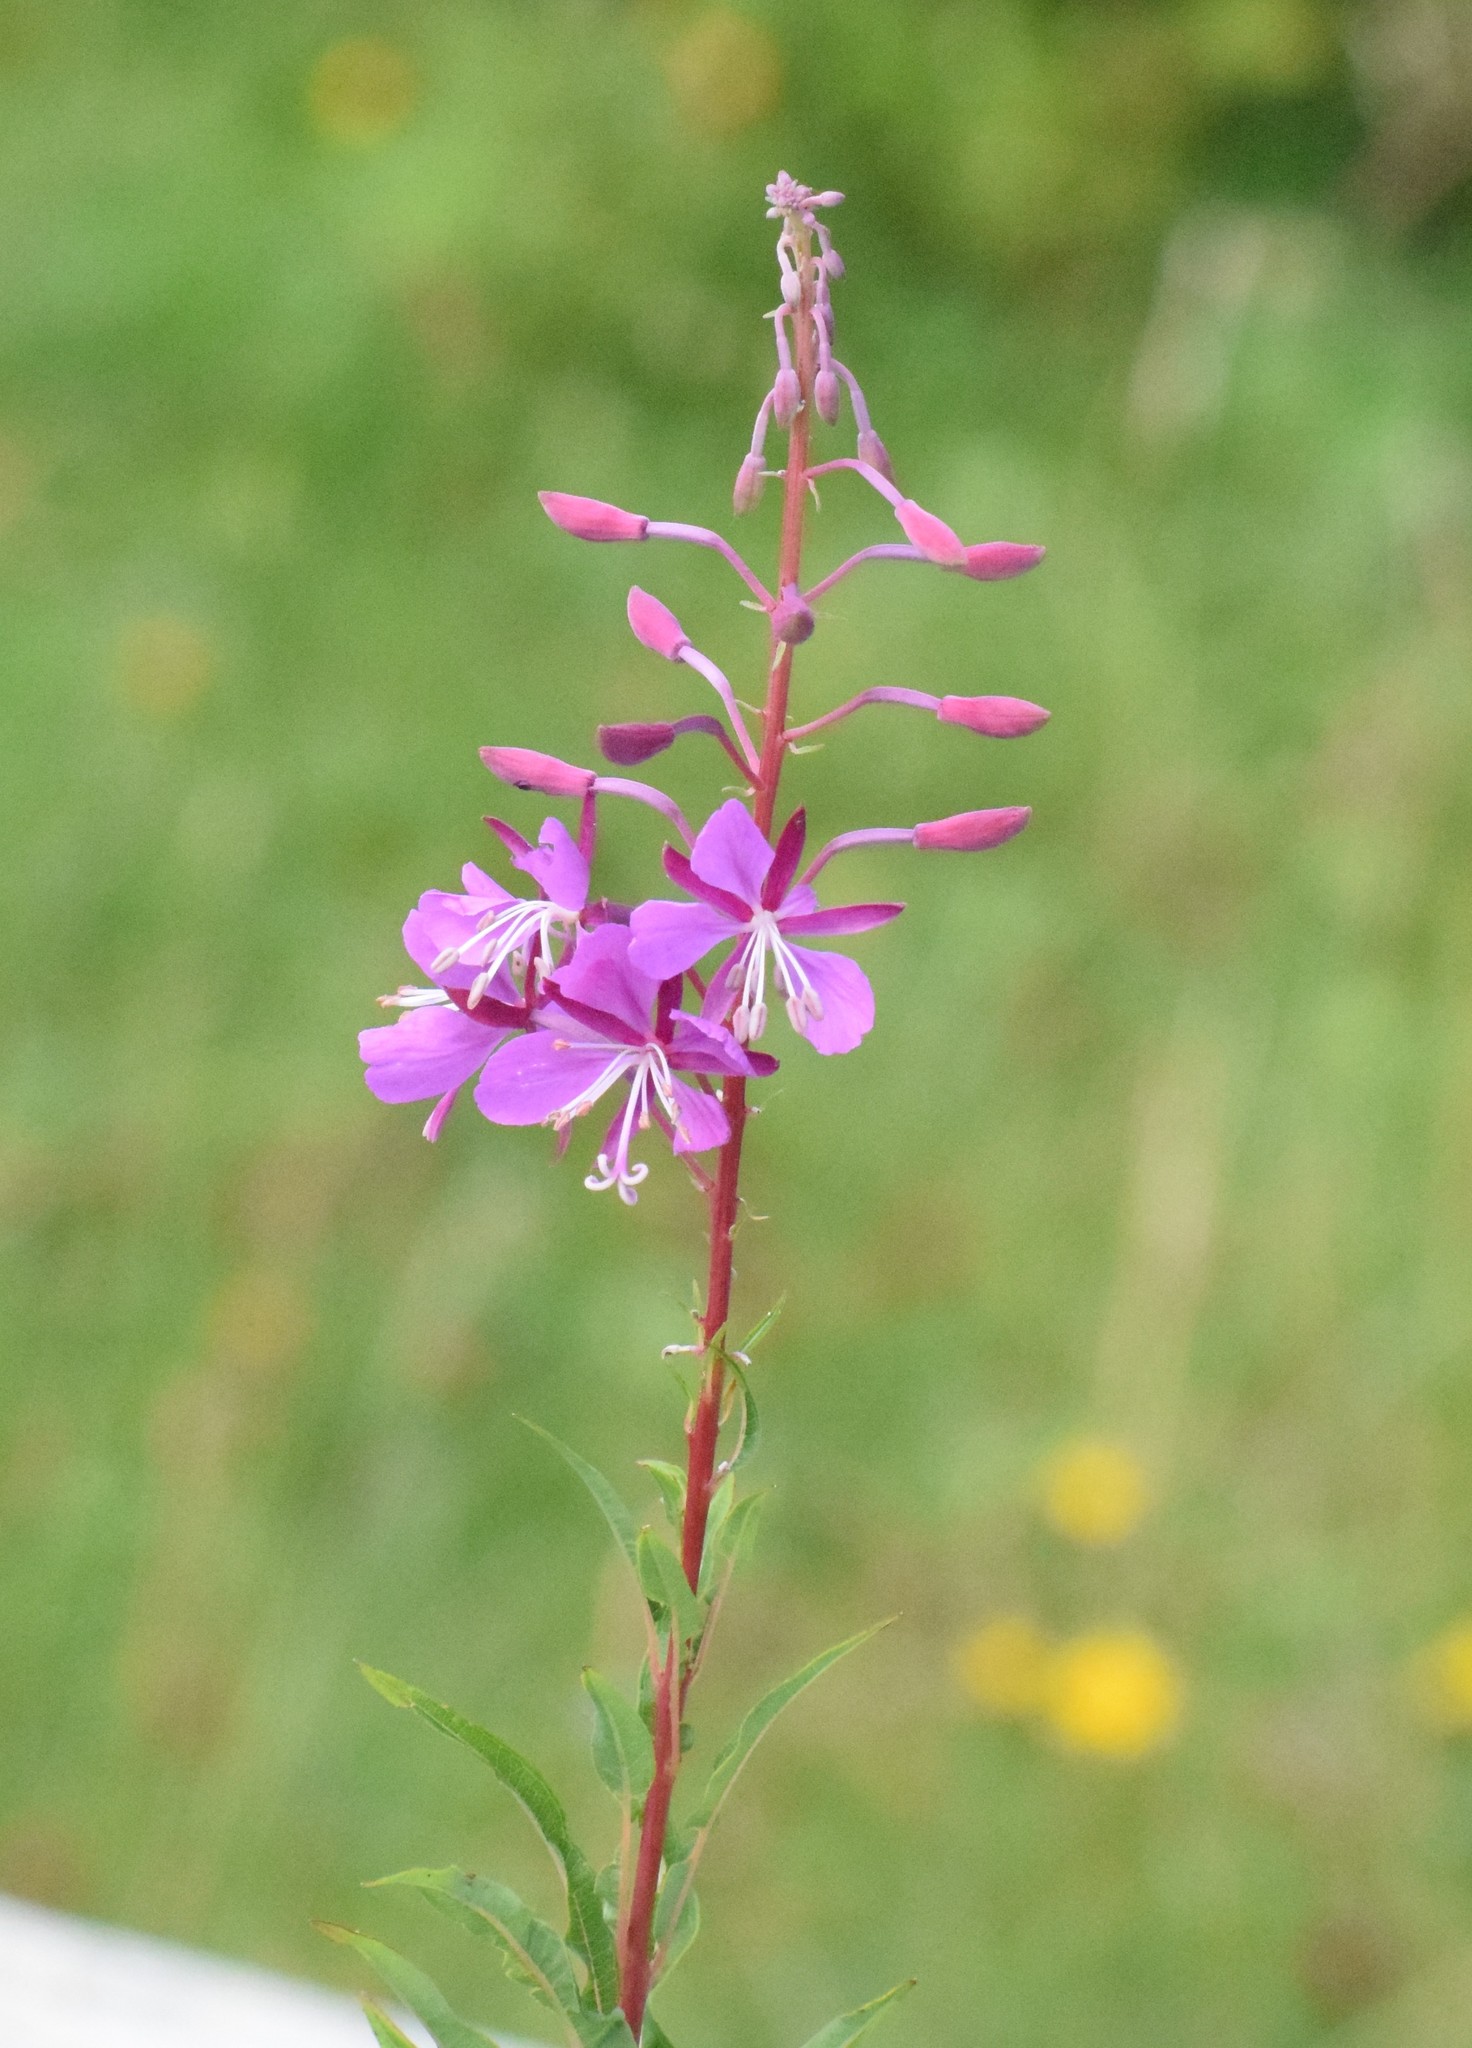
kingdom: Plantae
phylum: Tracheophyta
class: Magnoliopsida
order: Myrtales
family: Onagraceae
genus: Chamaenerion
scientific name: Chamaenerion angustifolium
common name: Fireweed
